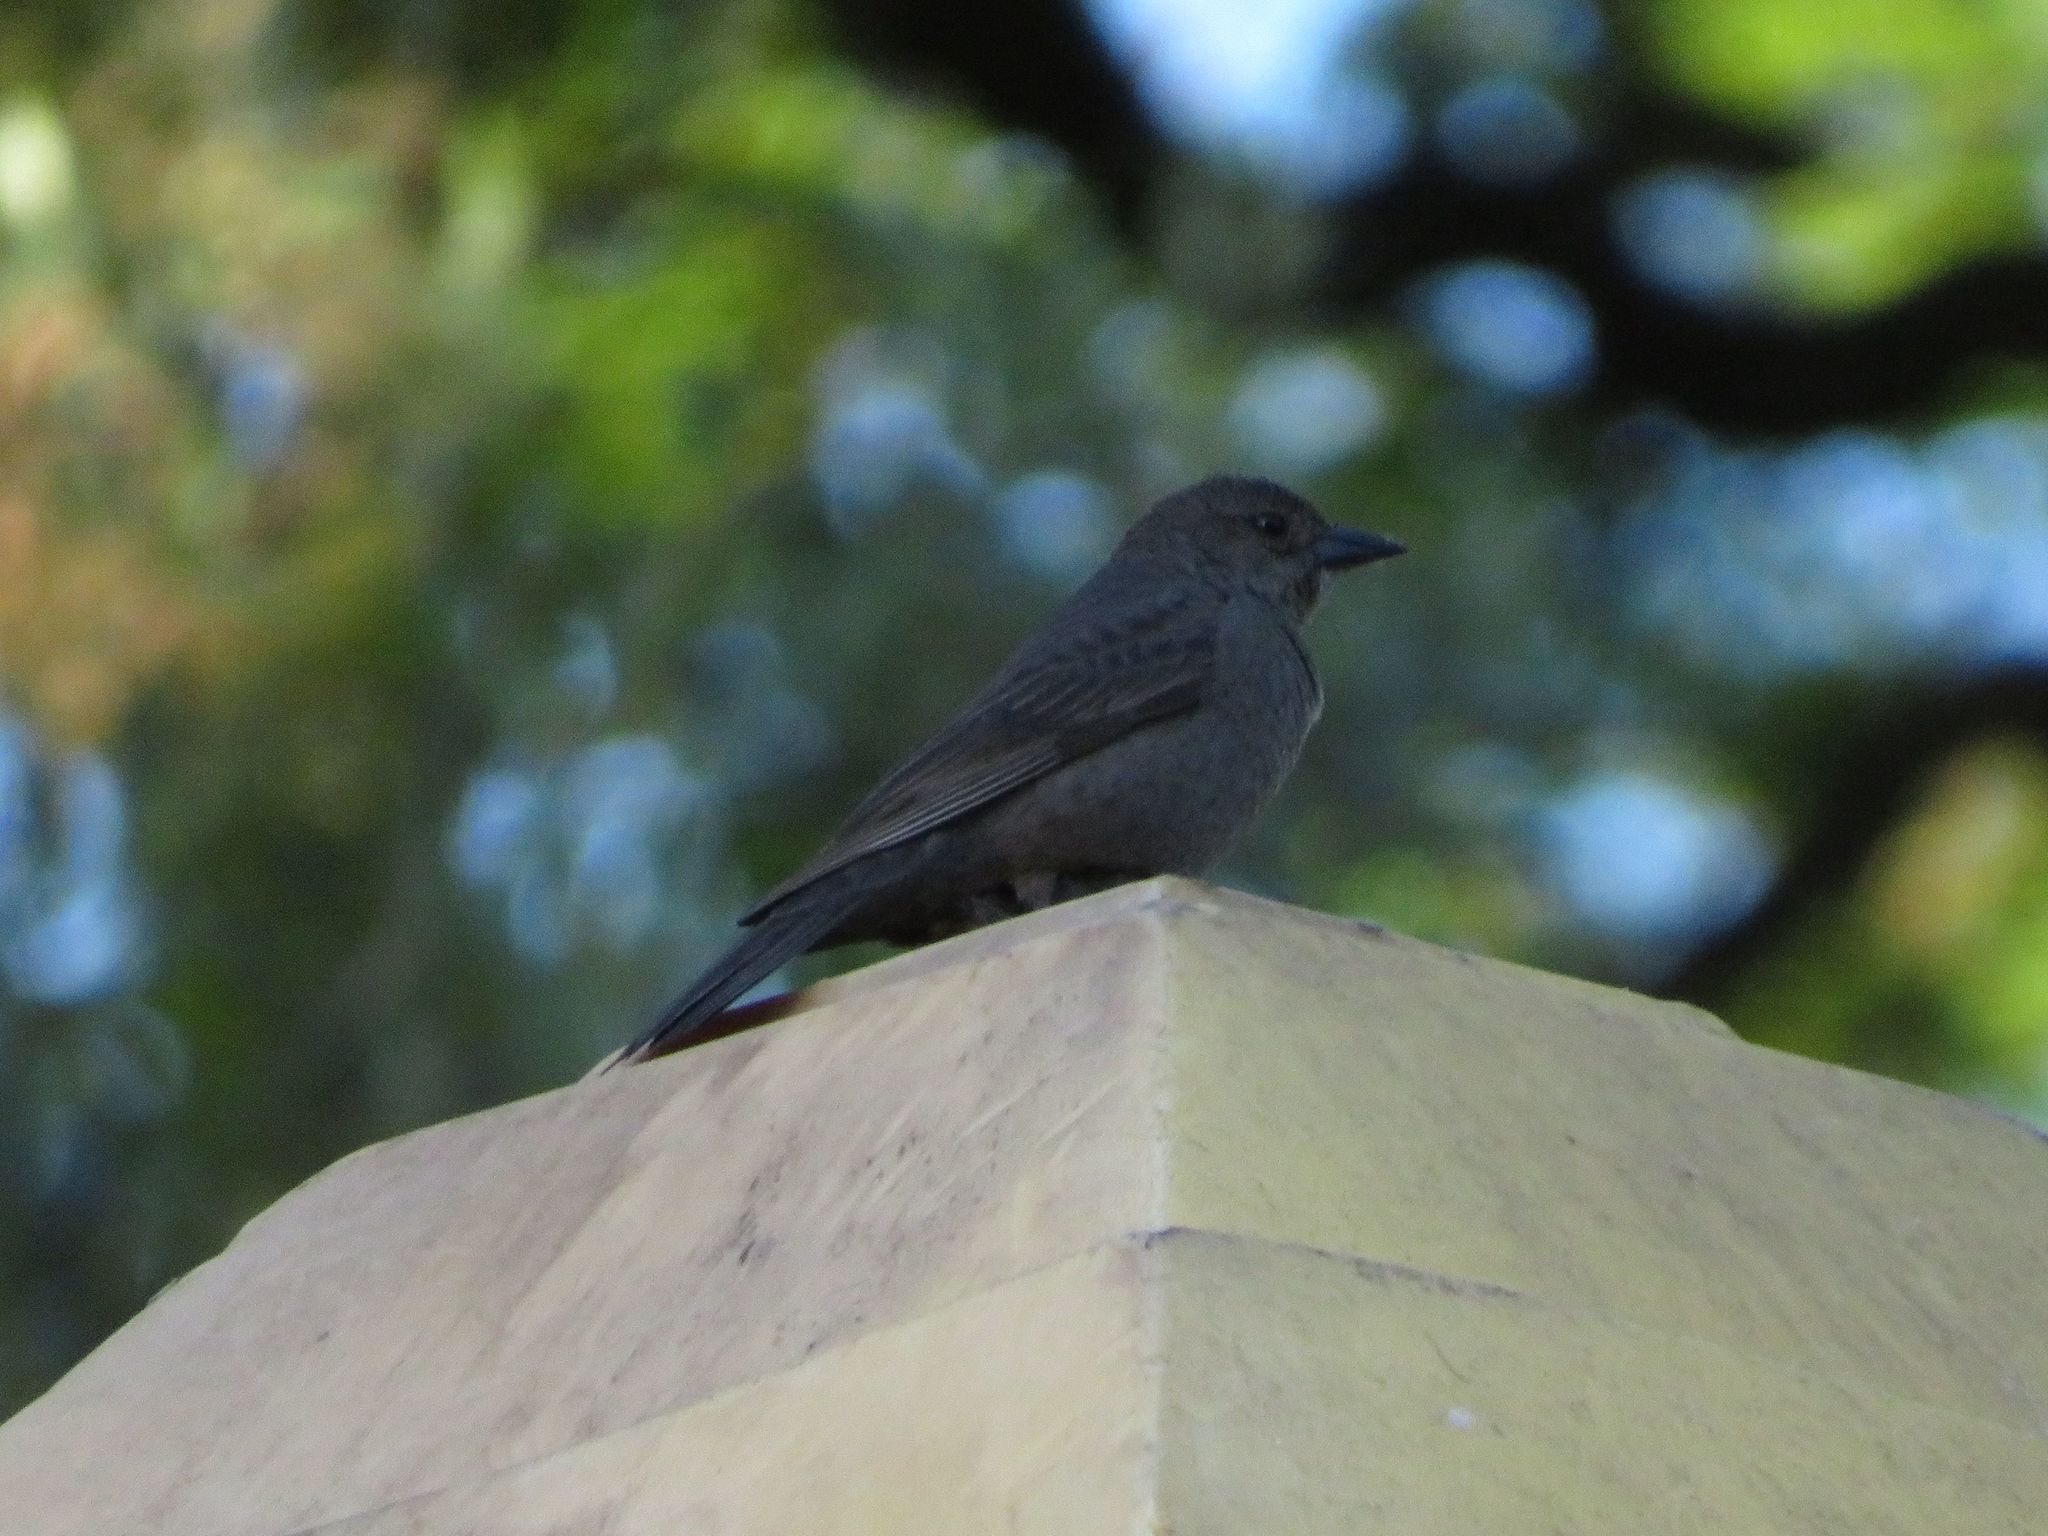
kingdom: Animalia
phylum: Chordata
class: Aves
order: Passeriformes
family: Icteridae
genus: Molothrus
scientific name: Molothrus bonariensis
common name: Shiny cowbird
